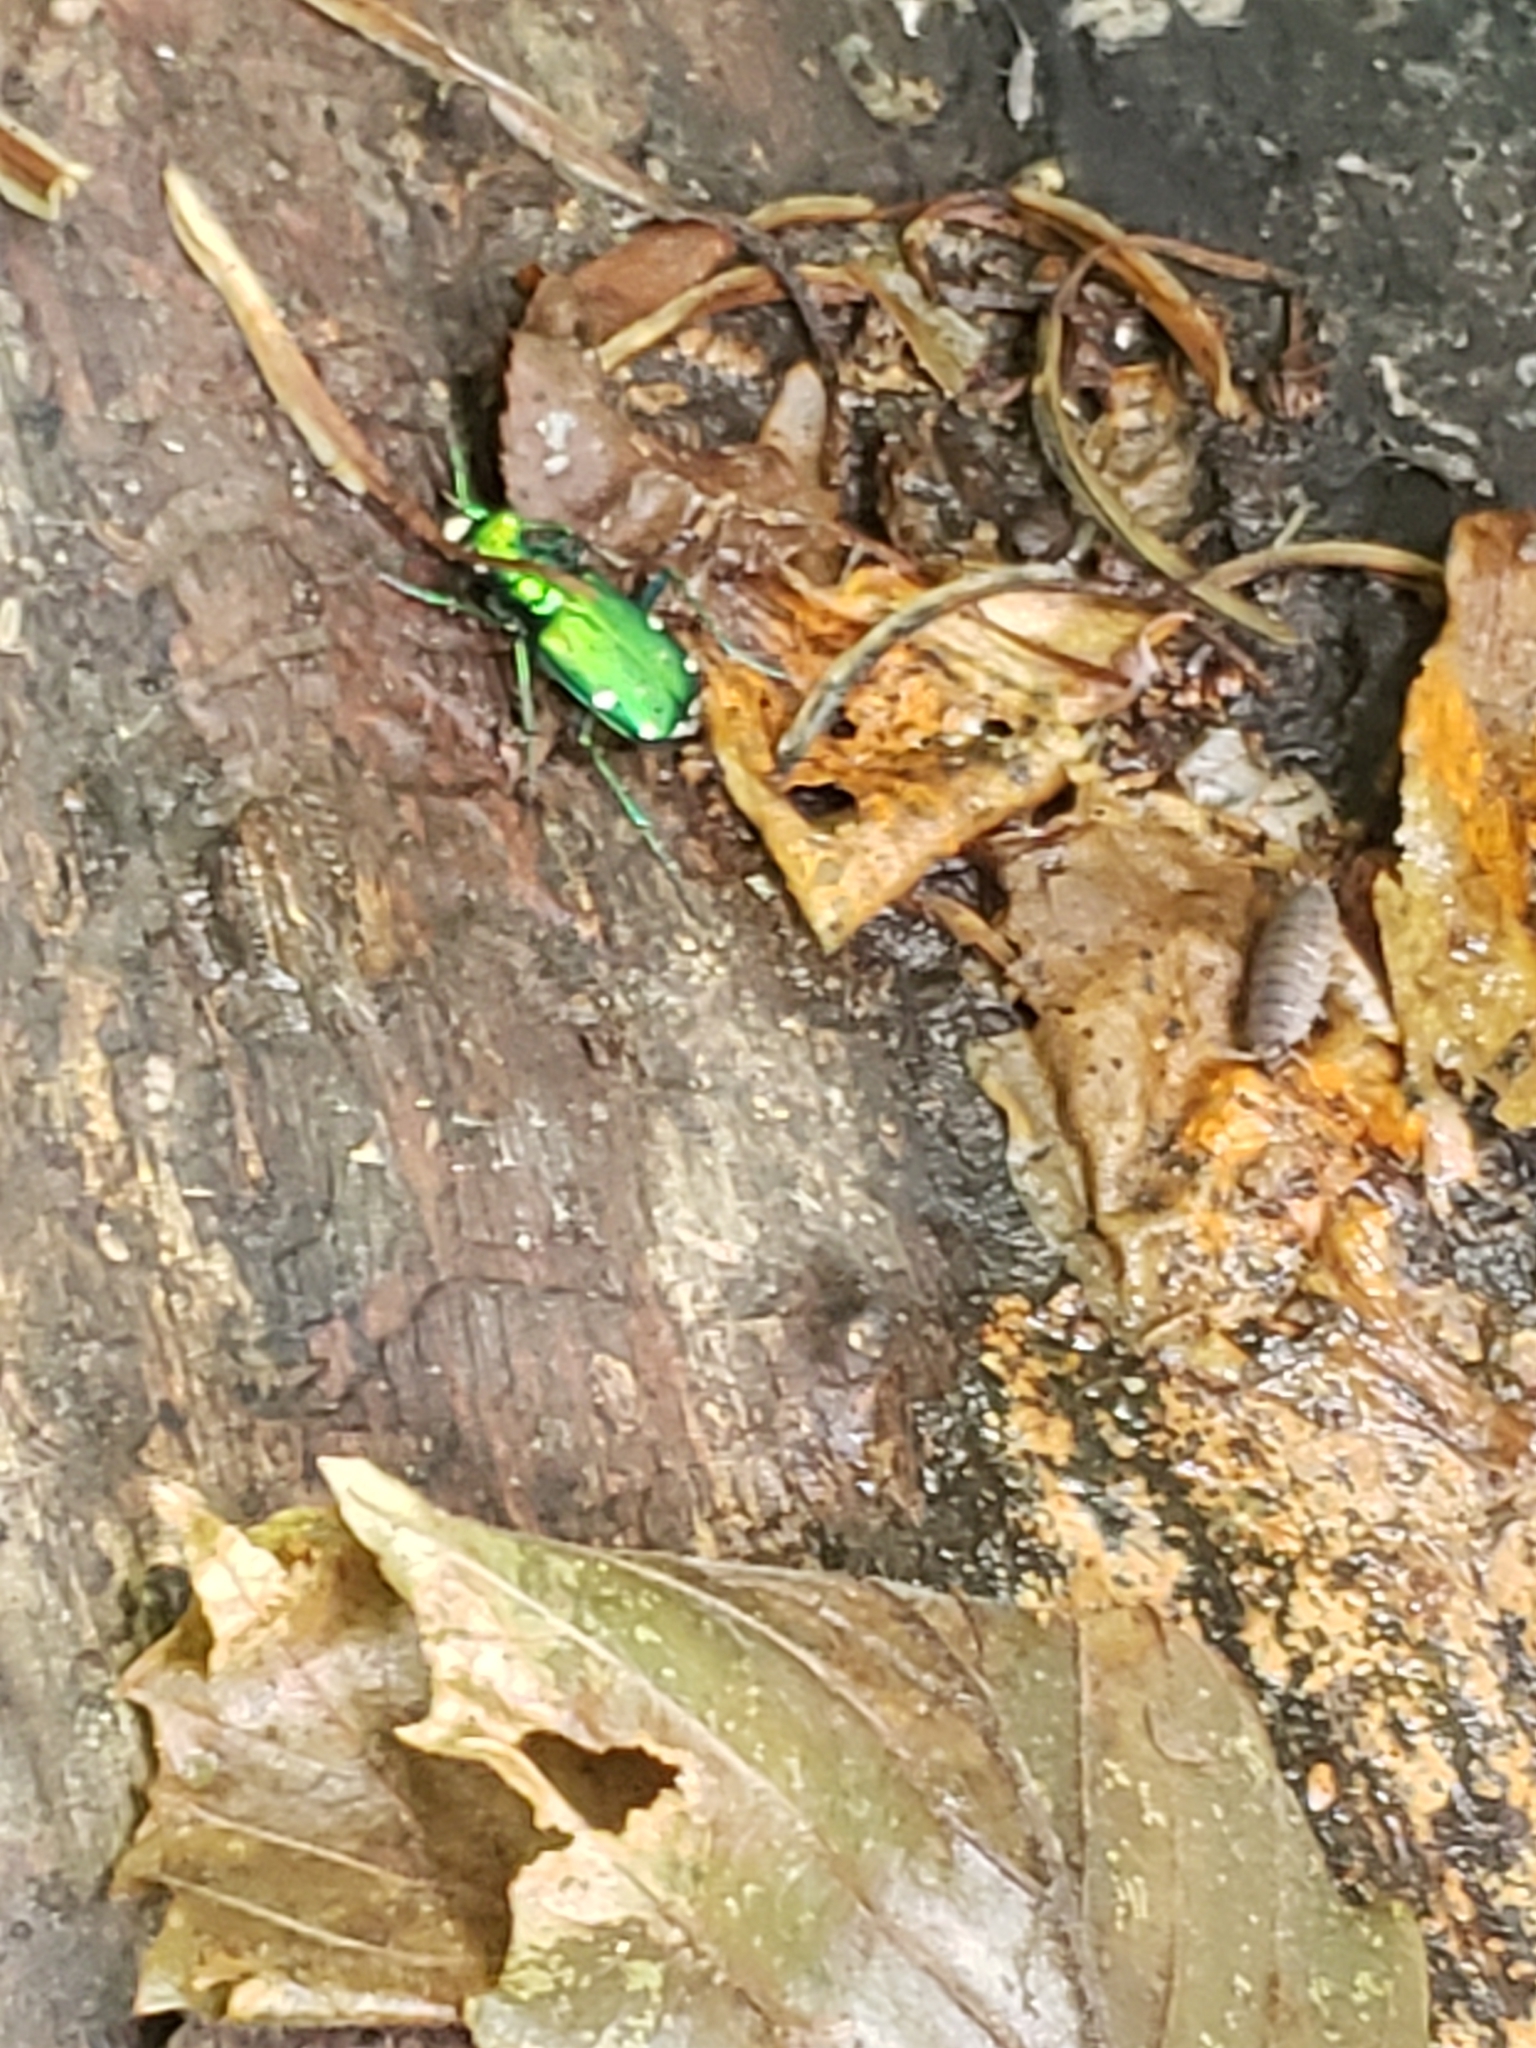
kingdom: Animalia
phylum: Arthropoda
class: Insecta
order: Coleoptera
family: Carabidae
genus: Cicindela
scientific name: Cicindela sexguttata
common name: Six-spotted tiger beetle
